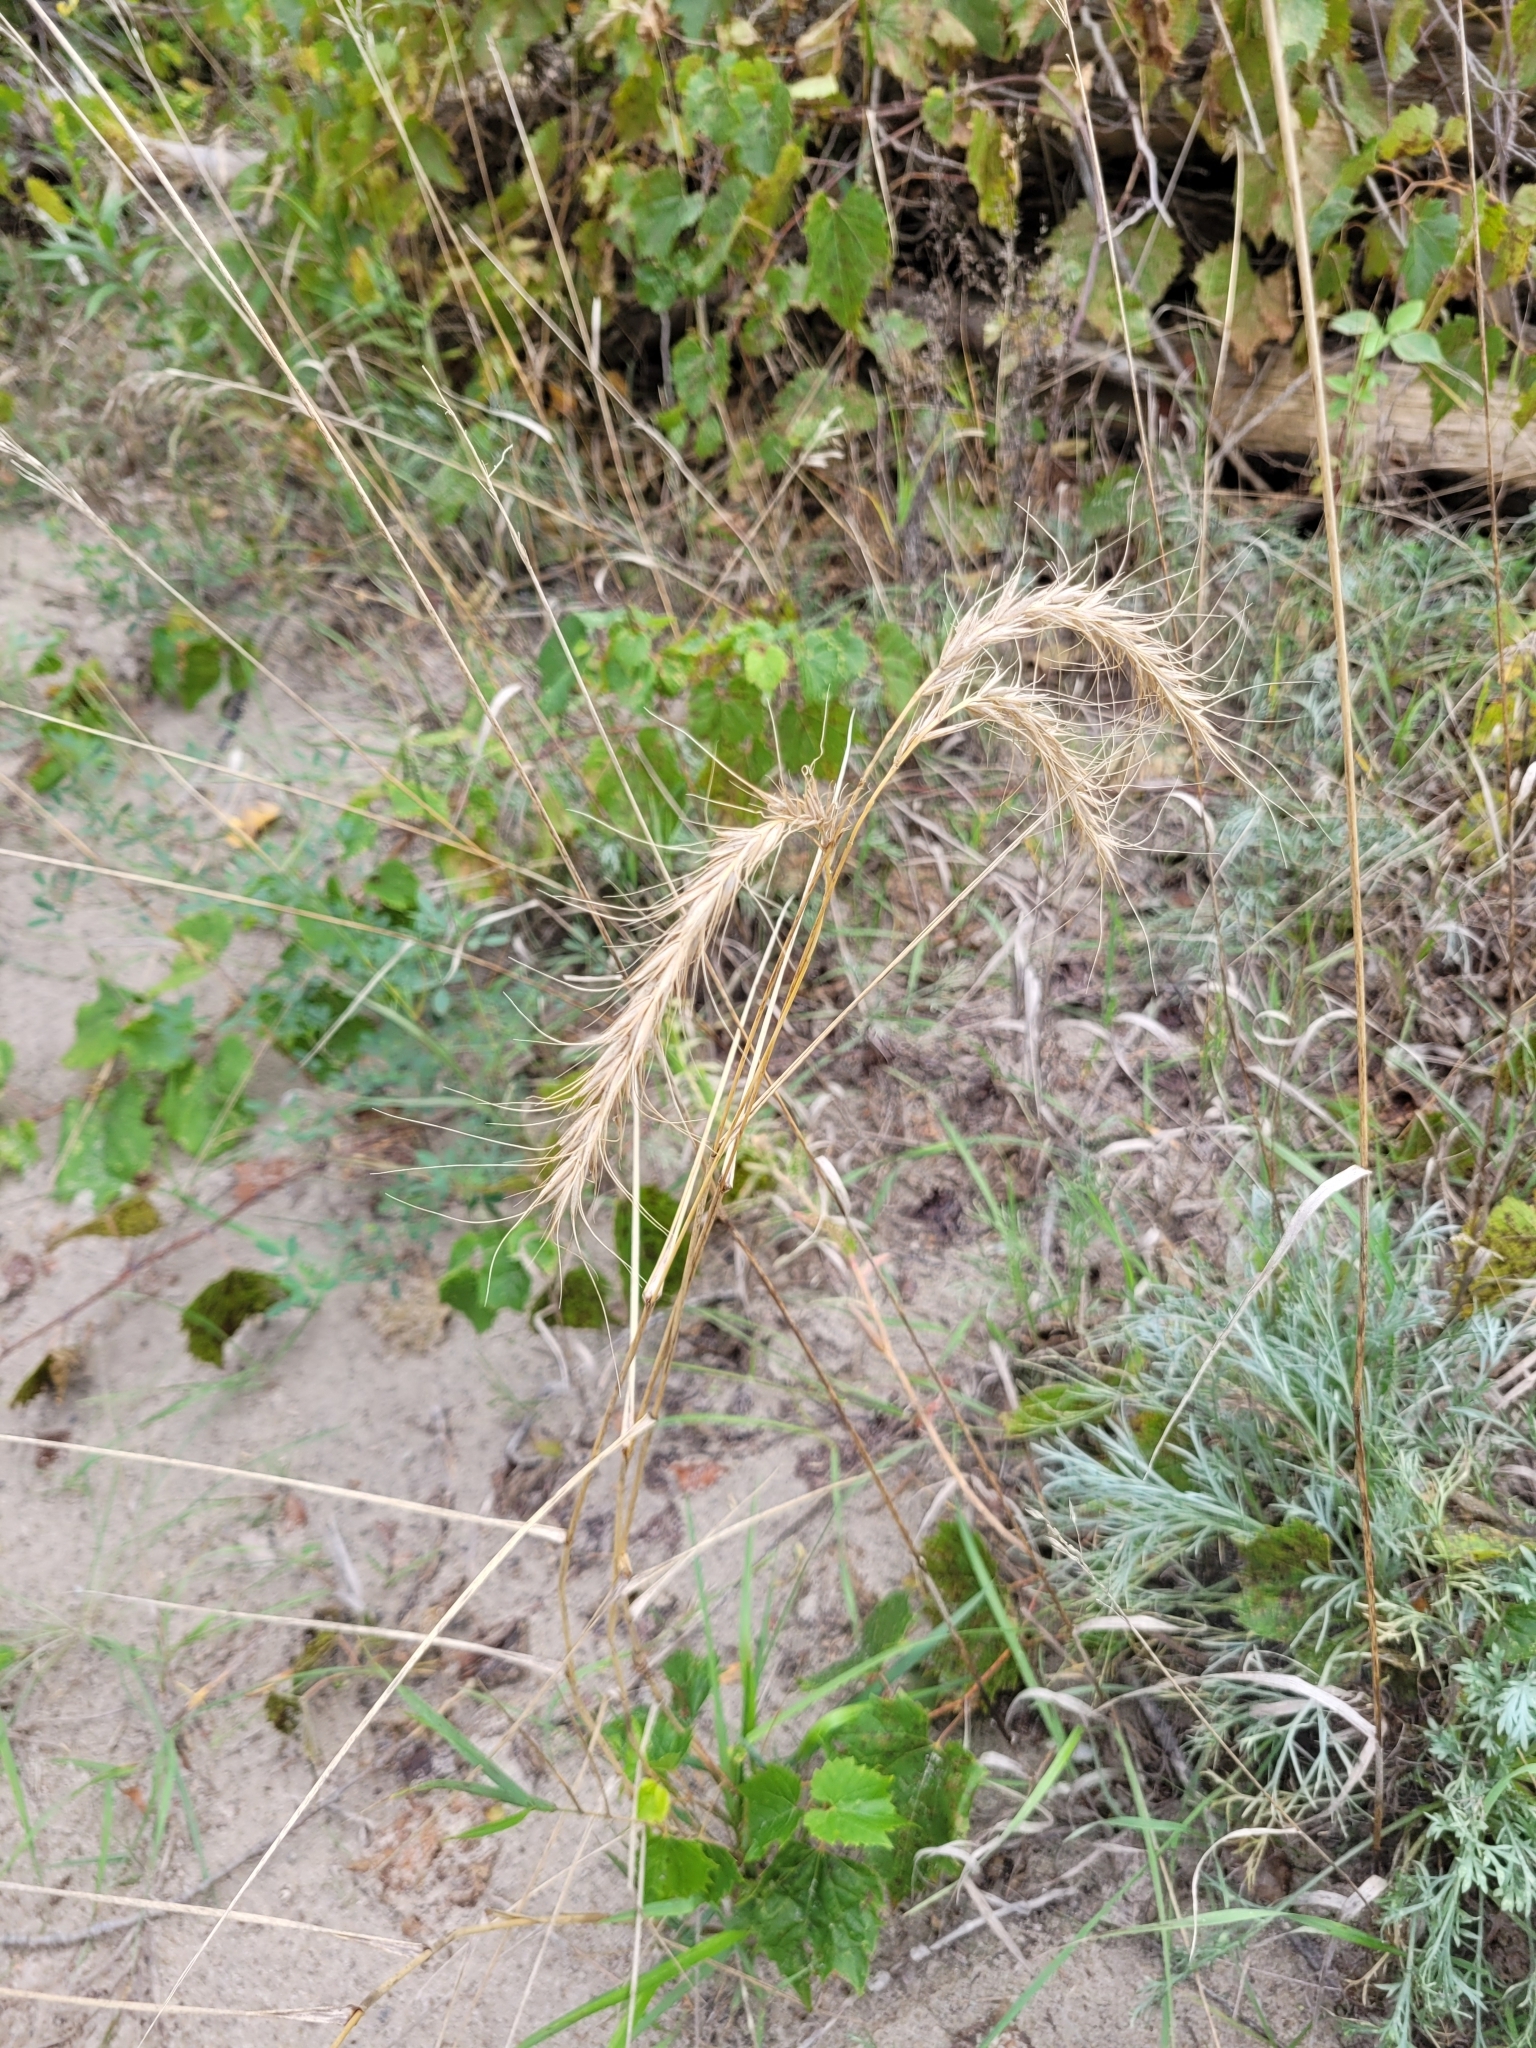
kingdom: Plantae
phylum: Tracheophyta
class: Liliopsida
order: Poales
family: Poaceae
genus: Elymus
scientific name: Elymus canadensis
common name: Canada wild rye
